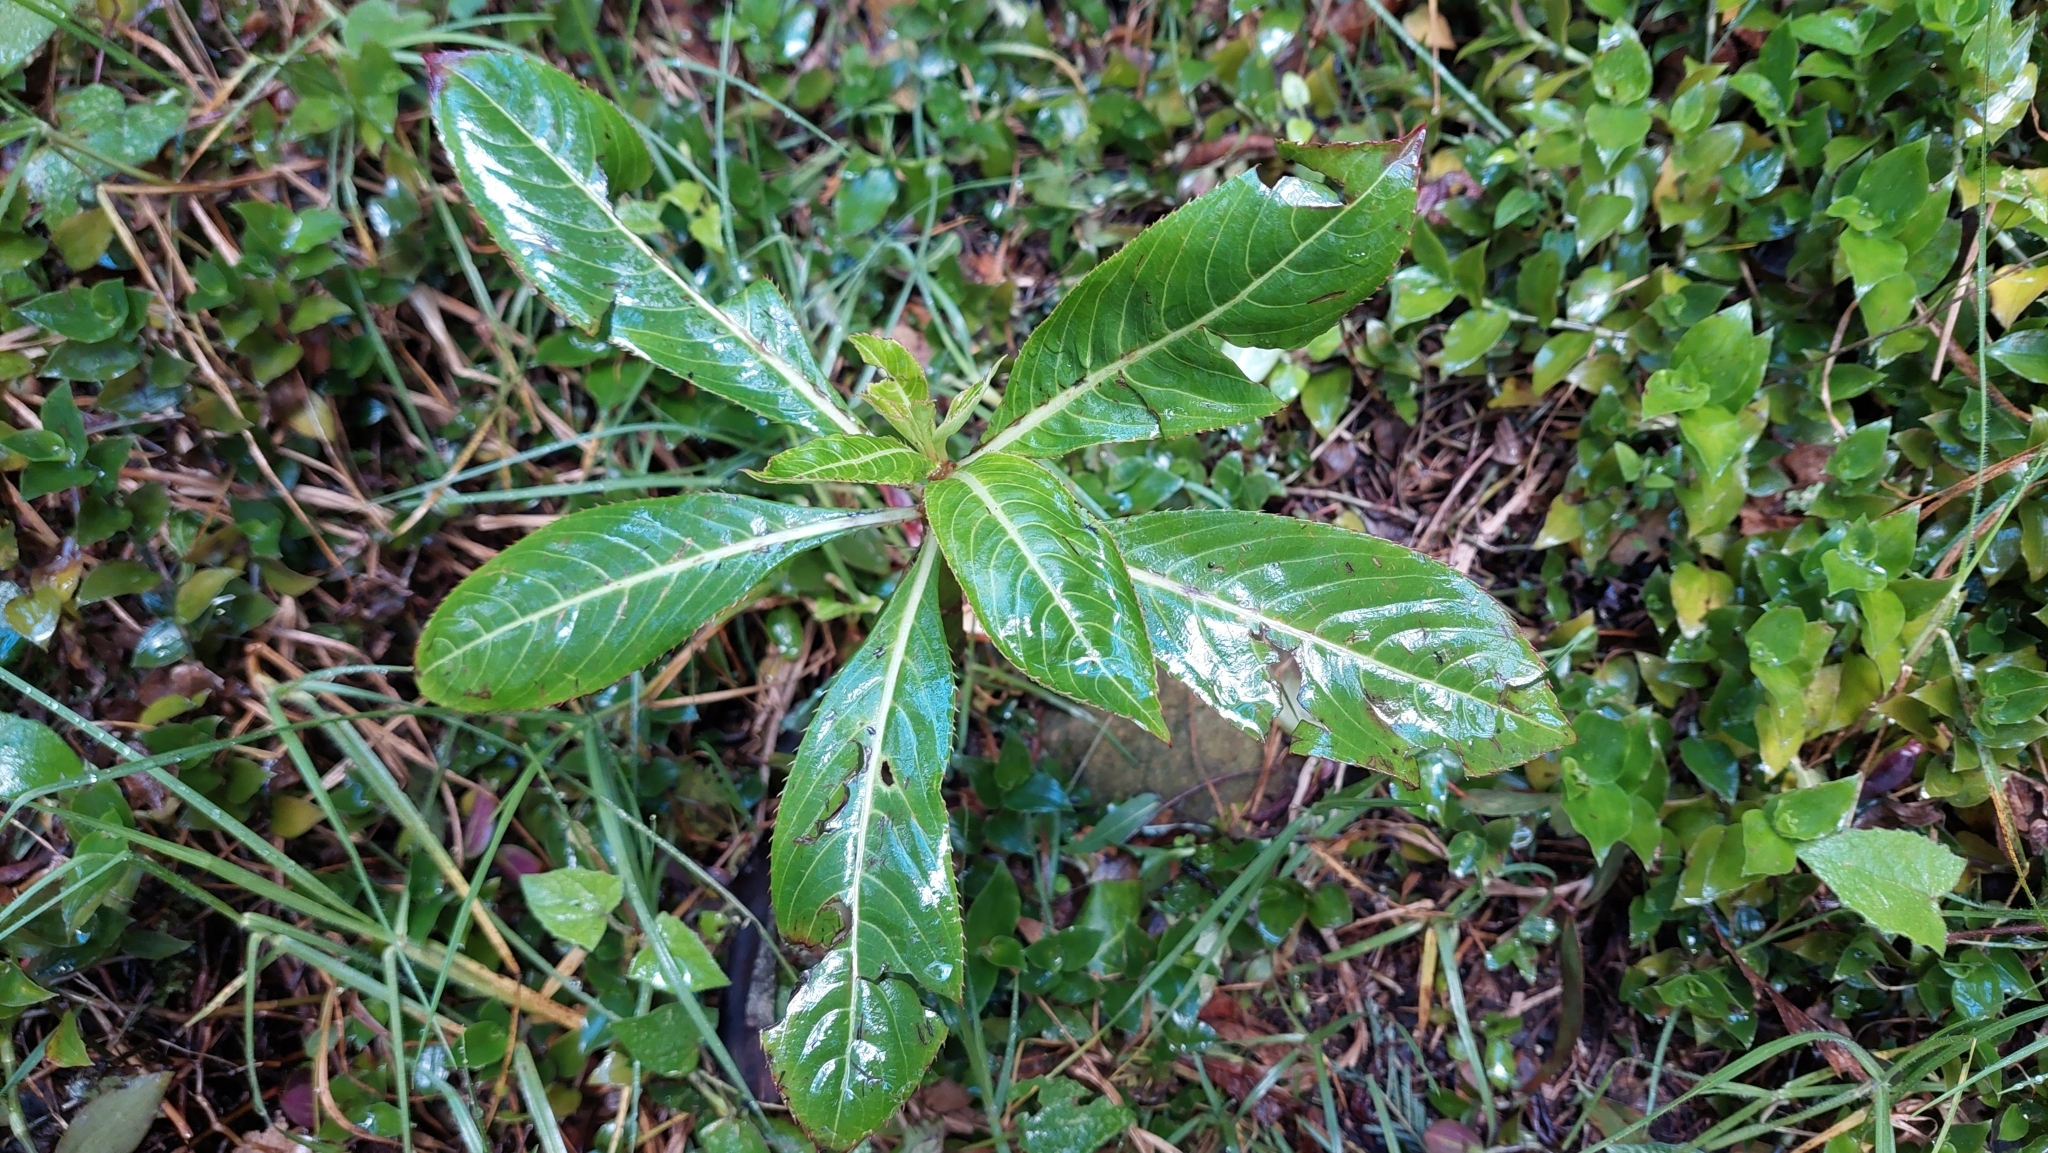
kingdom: Plantae
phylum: Tracheophyta
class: Magnoliopsida
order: Ericales
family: Balsaminaceae
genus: Impatiens
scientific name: Impatiens sodenii
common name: Oliver's touch-me-not
